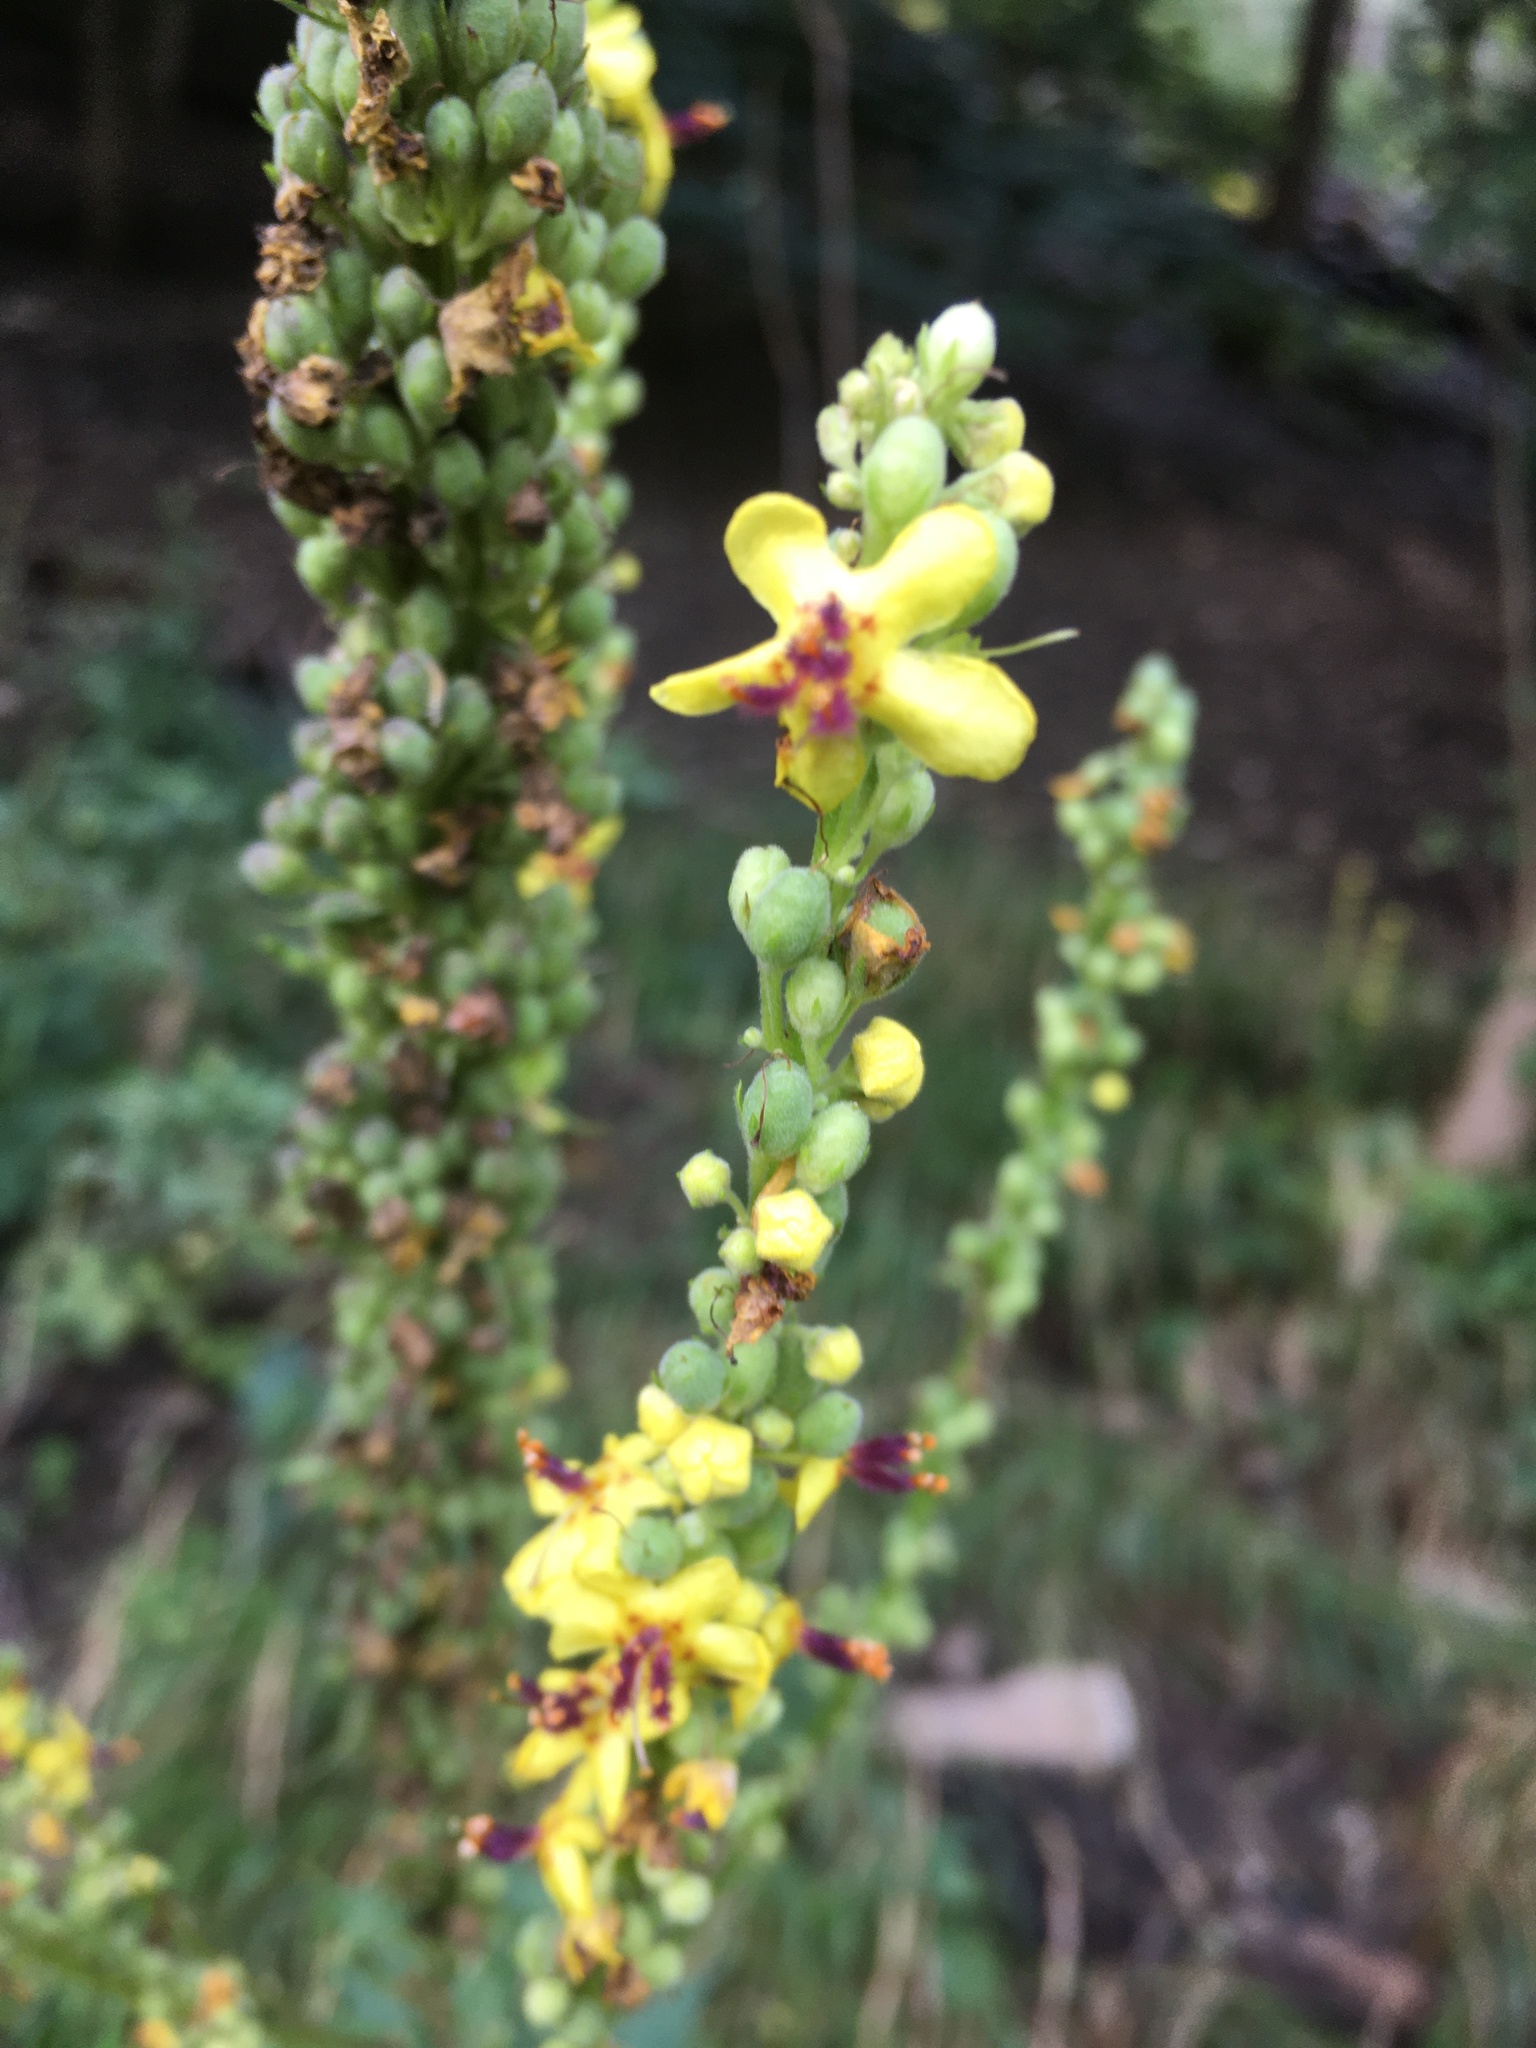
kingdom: Plantae
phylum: Tracheophyta
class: Magnoliopsida
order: Lamiales
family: Scrophulariaceae
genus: Verbascum
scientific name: Verbascum
